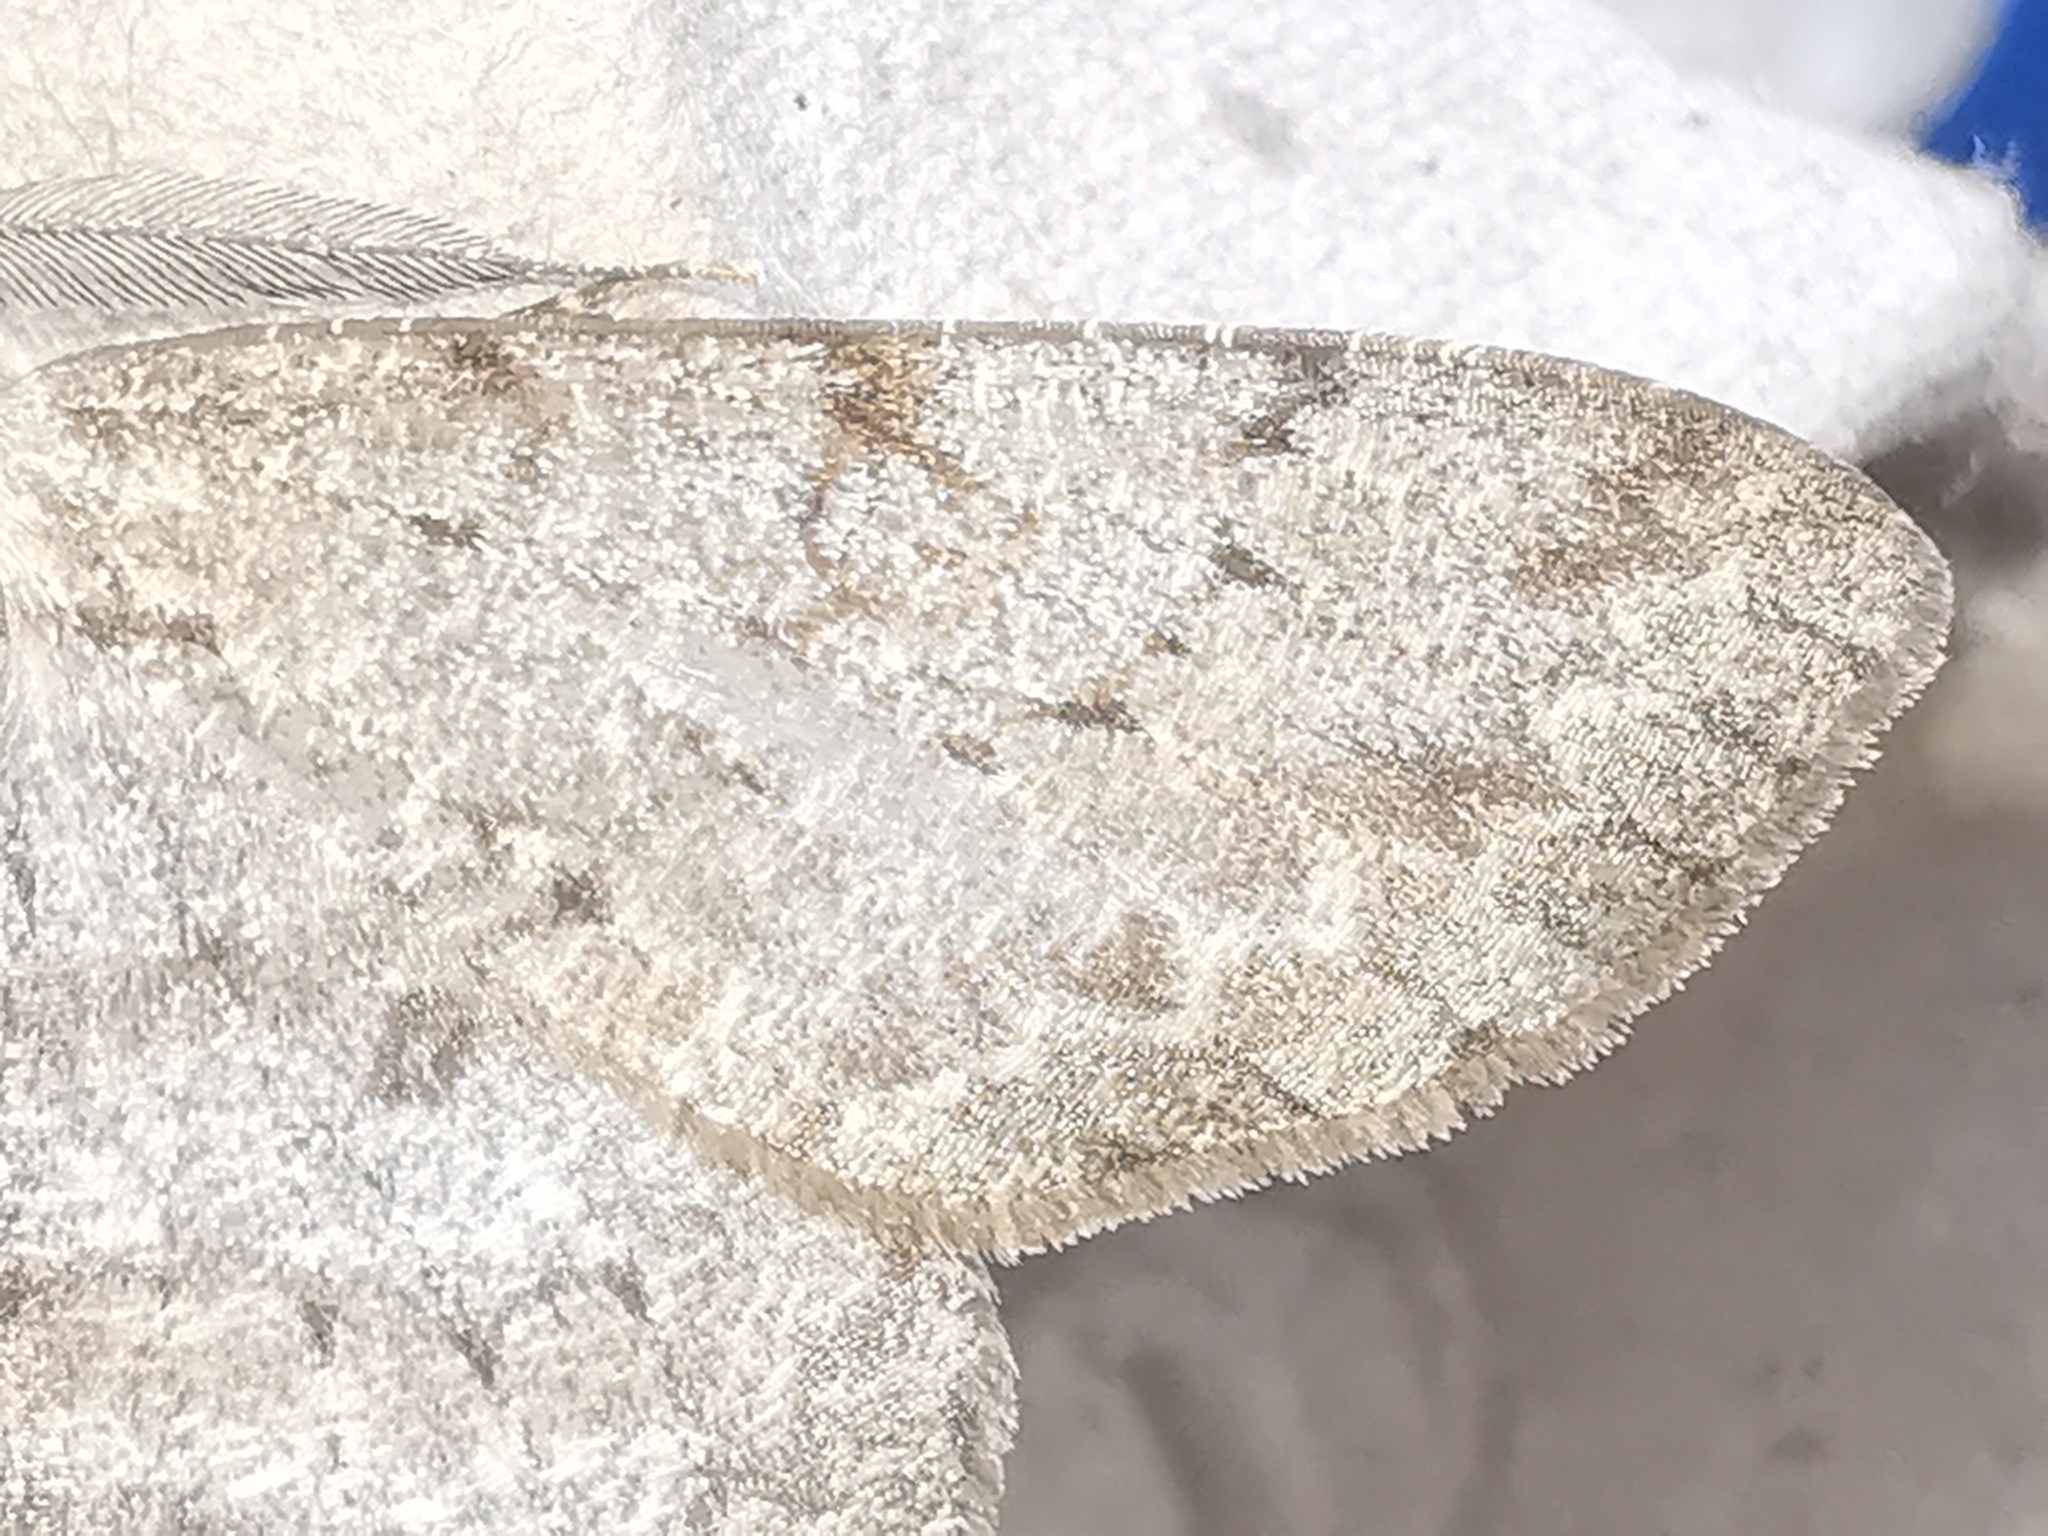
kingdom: Animalia
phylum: Arthropoda
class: Insecta
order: Lepidoptera
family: Geometridae
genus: Hypomecis
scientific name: Hypomecis punctinalis
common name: Pale oak beauty
